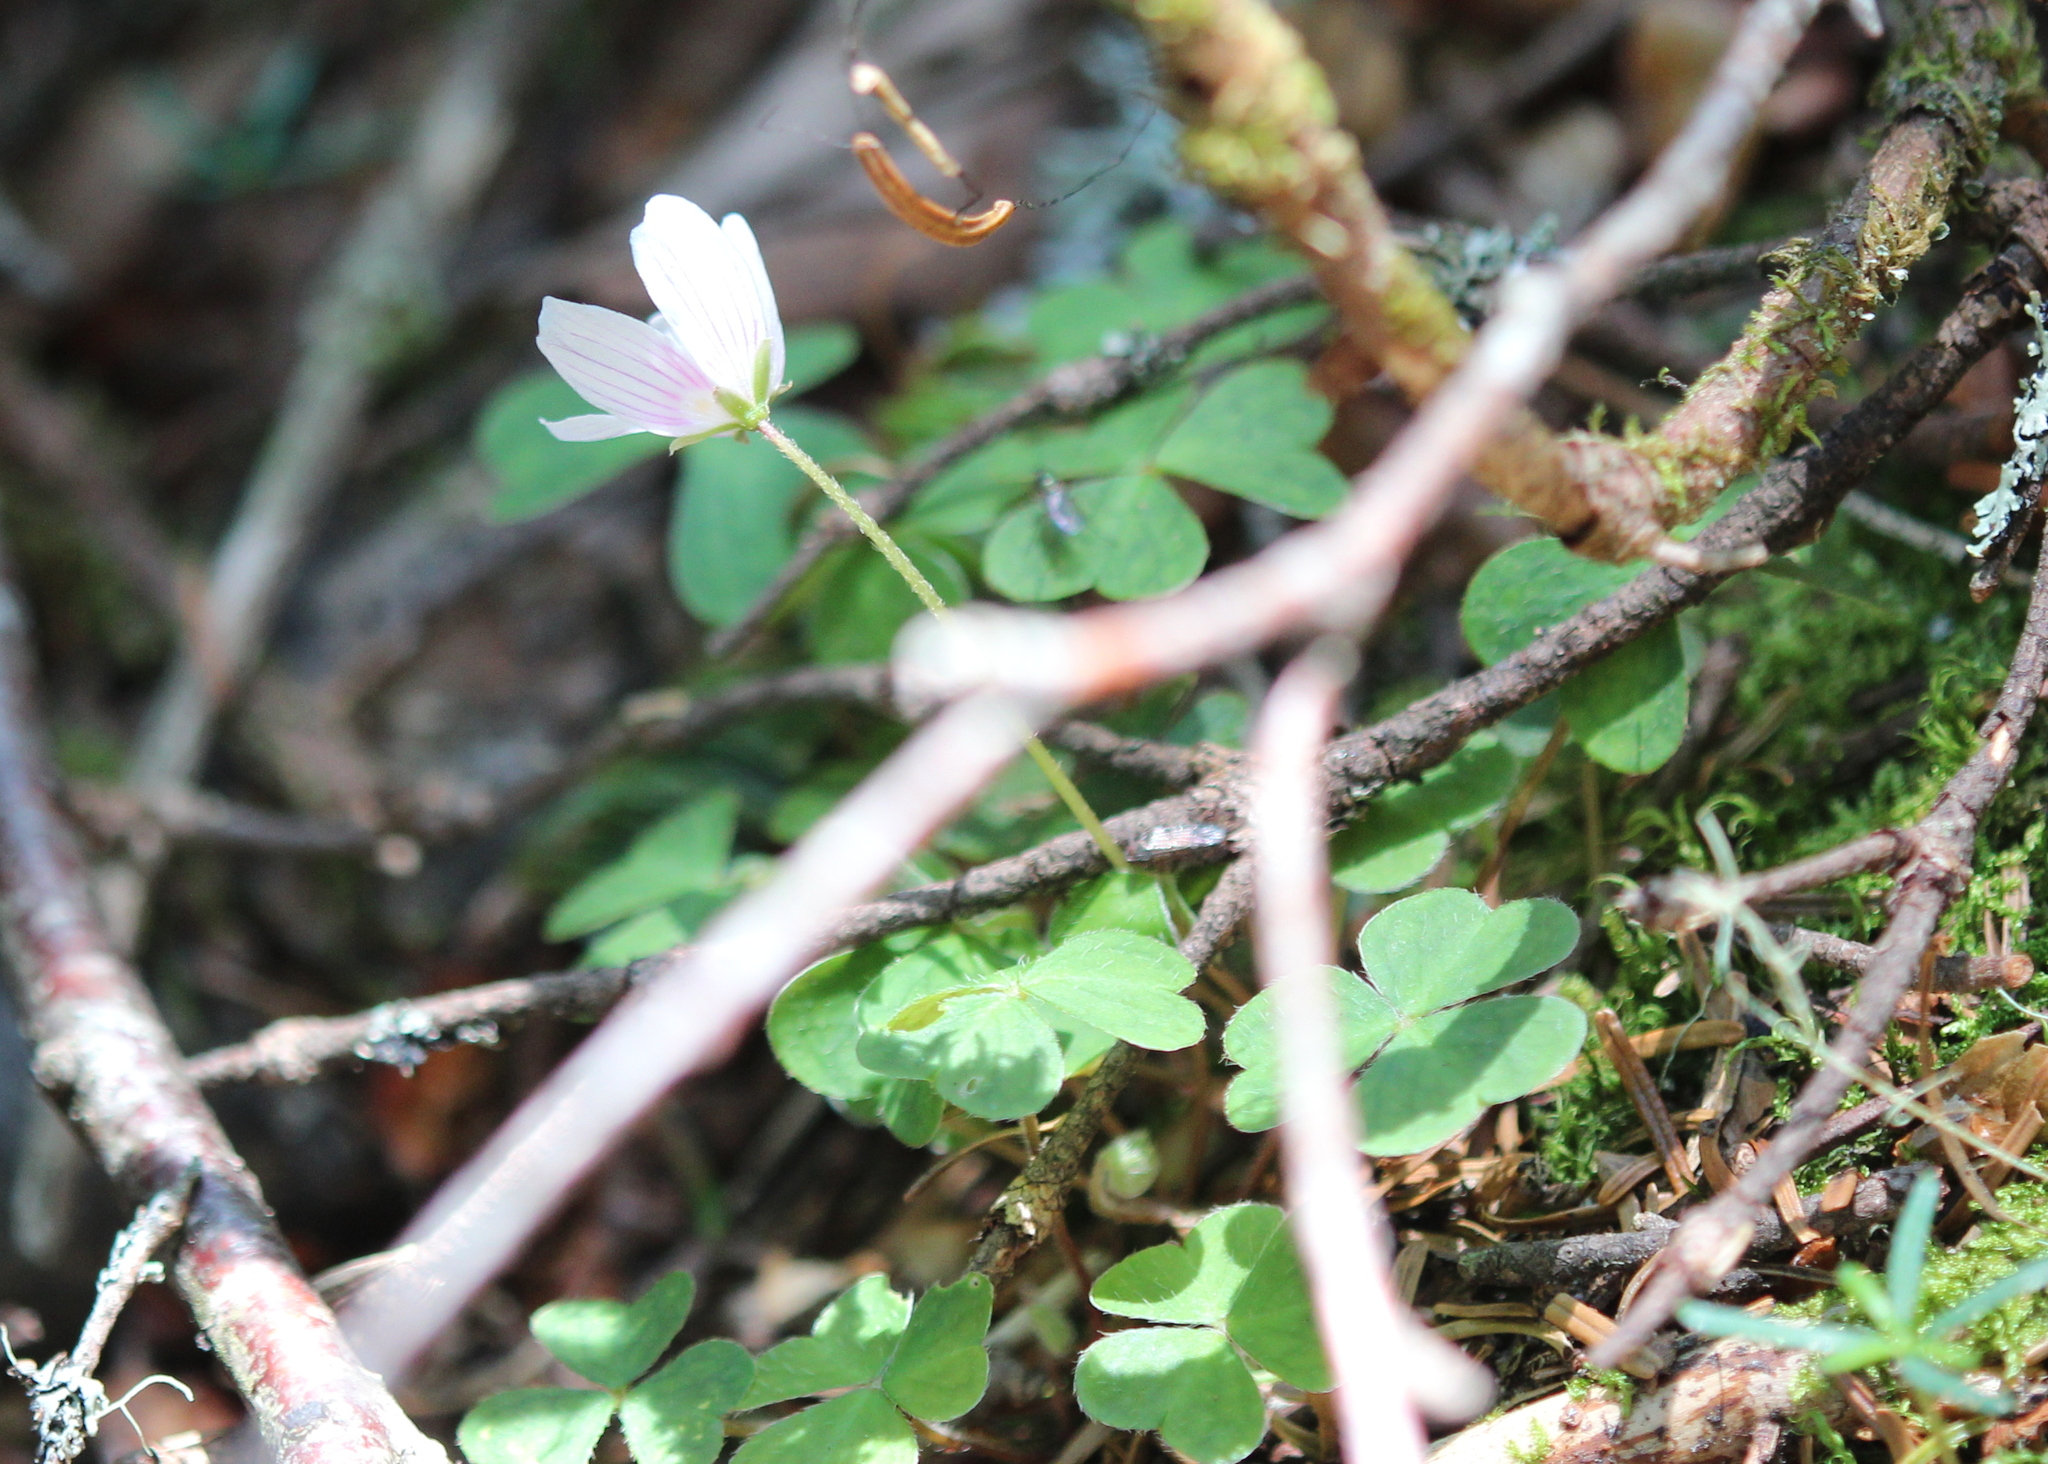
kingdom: Plantae
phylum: Tracheophyta
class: Magnoliopsida
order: Oxalidales
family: Oxalidaceae
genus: Oxalis
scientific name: Oxalis montana
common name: American wood-sorrel
